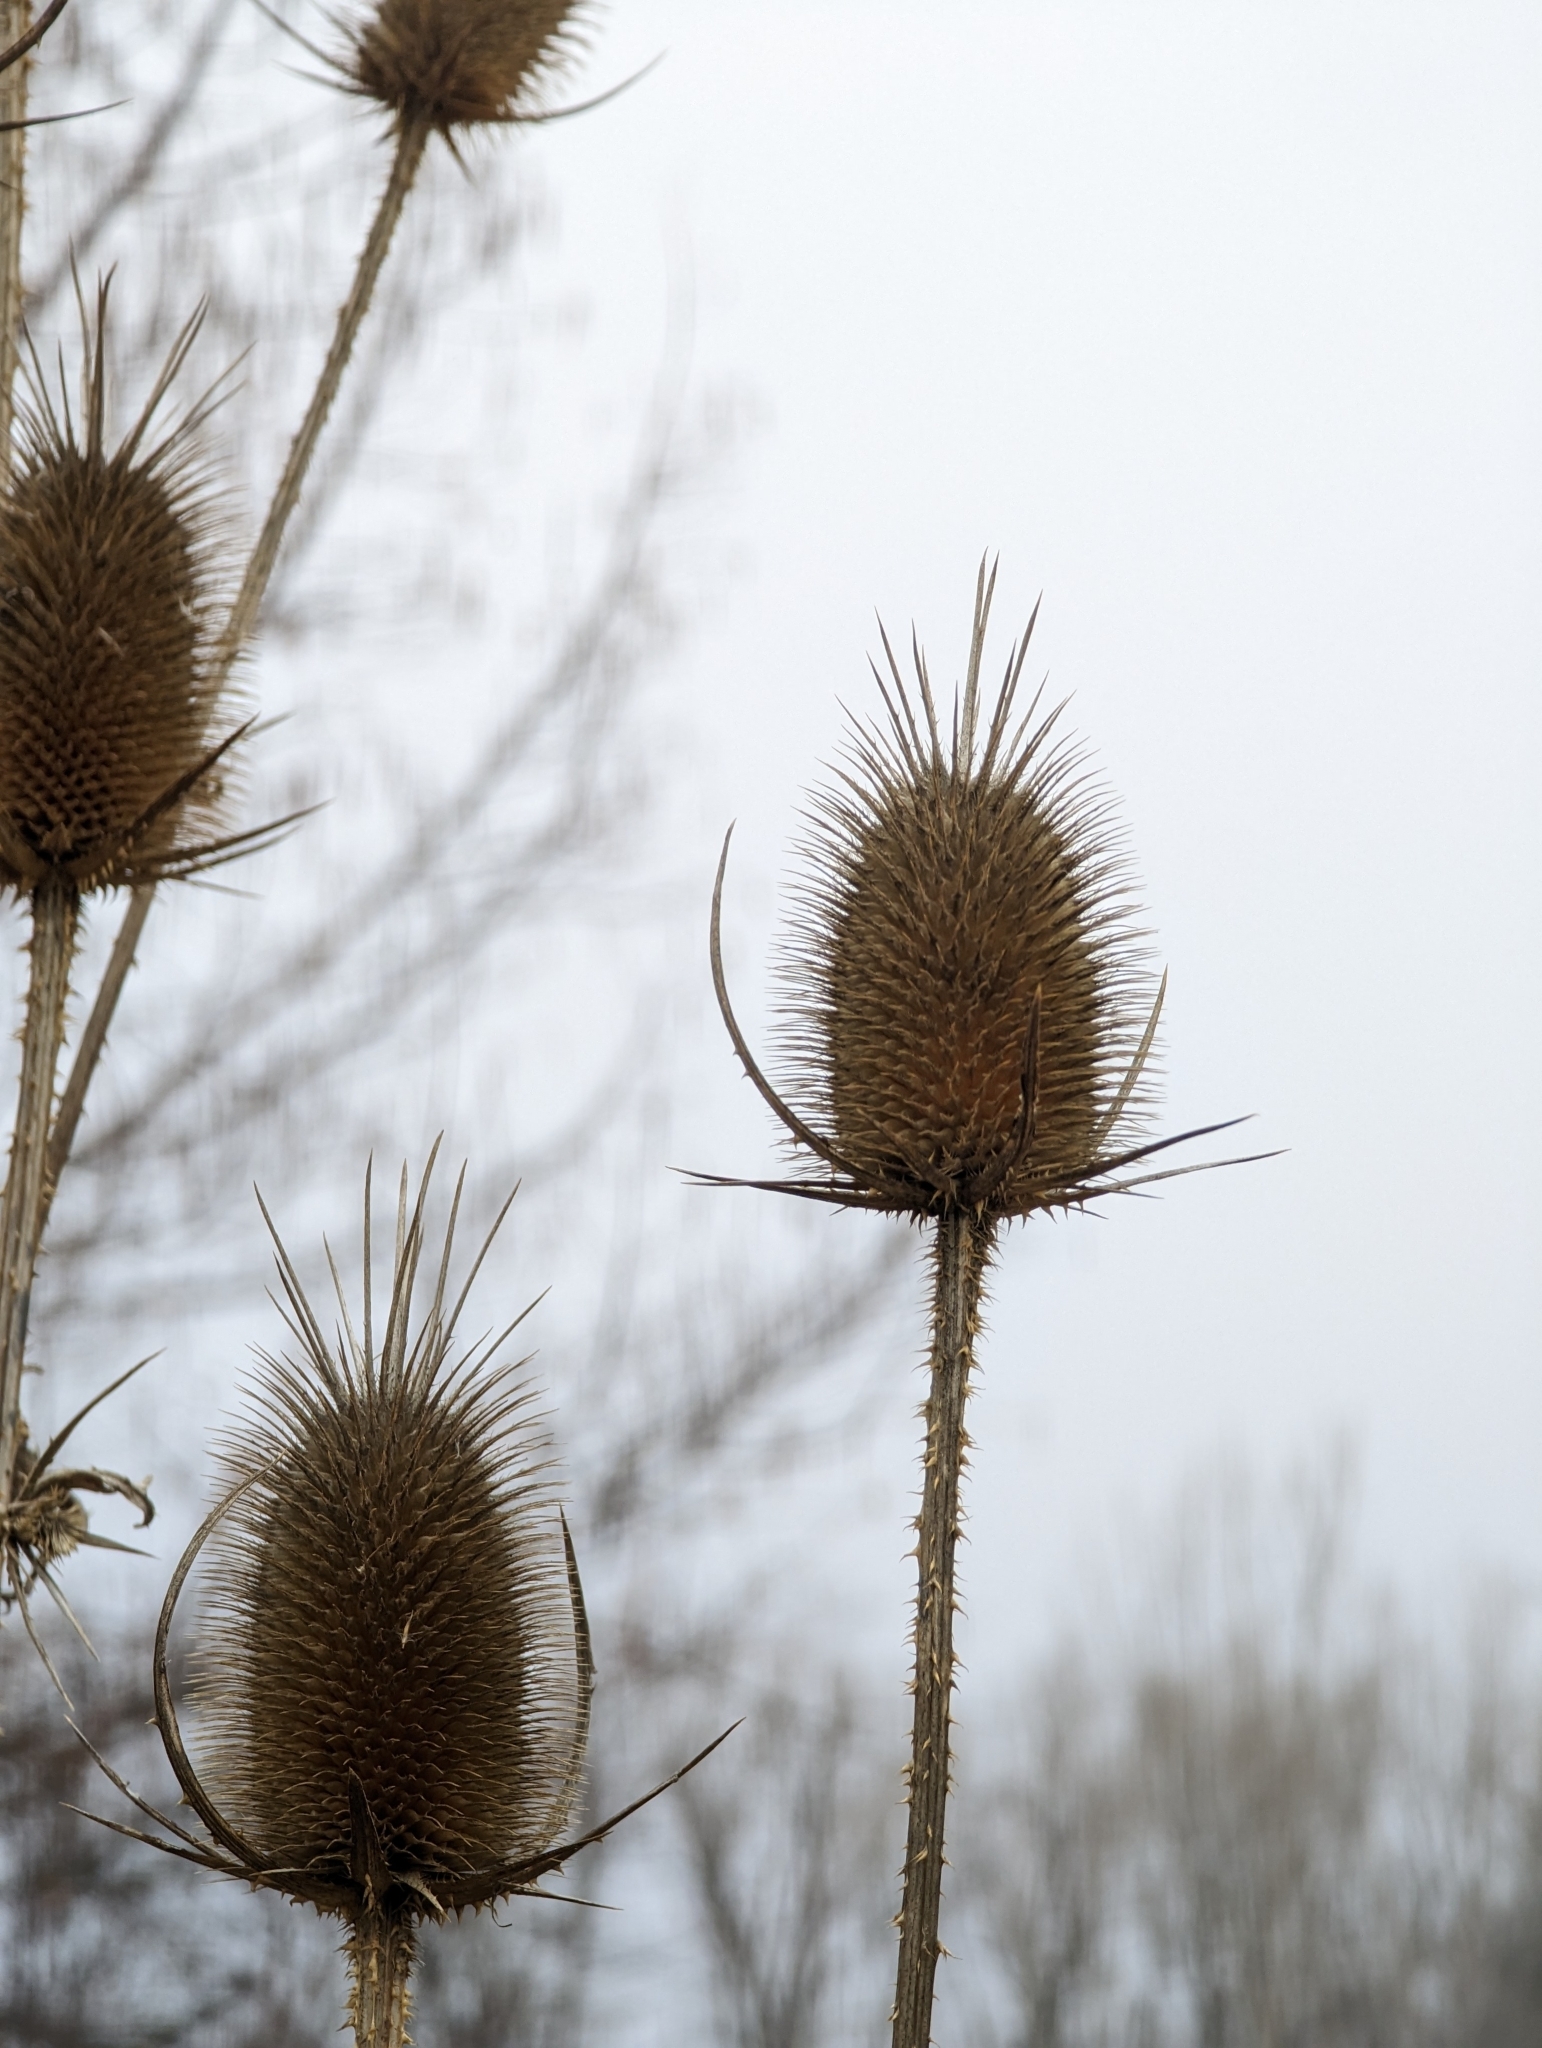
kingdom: Plantae
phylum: Tracheophyta
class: Magnoliopsida
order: Dipsacales
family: Caprifoliaceae
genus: Dipsacus
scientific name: Dipsacus laciniatus
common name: Cut-leaved teasel
